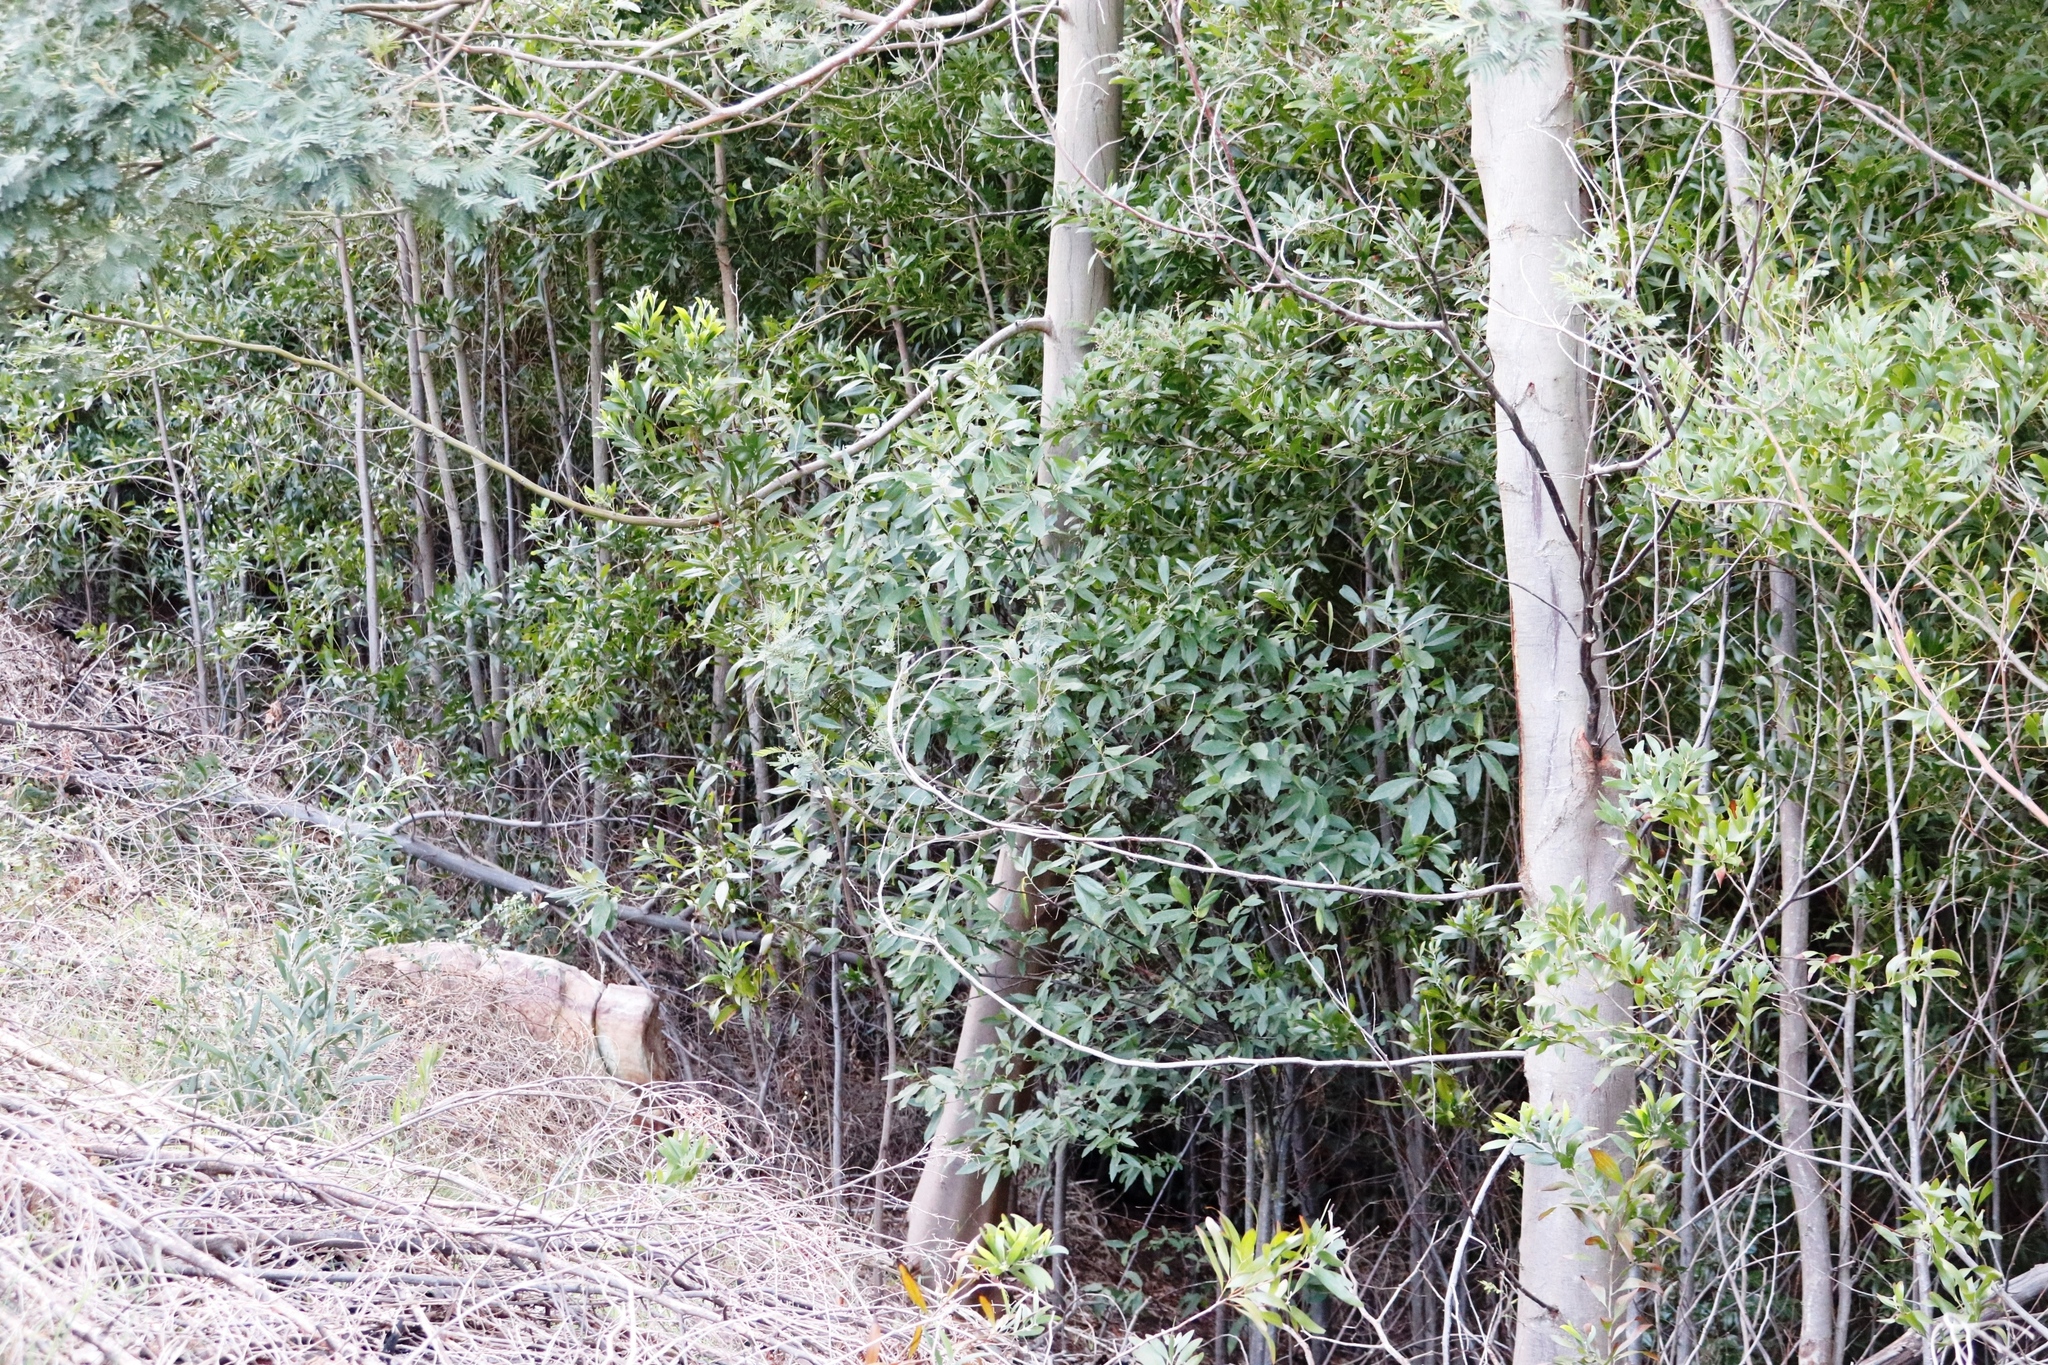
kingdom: Plantae
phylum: Tracheophyta
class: Magnoliopsida
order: Malpighiales
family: Achariaceae
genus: Kiggelaria
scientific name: Kiggelaria africana
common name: Wild peach
